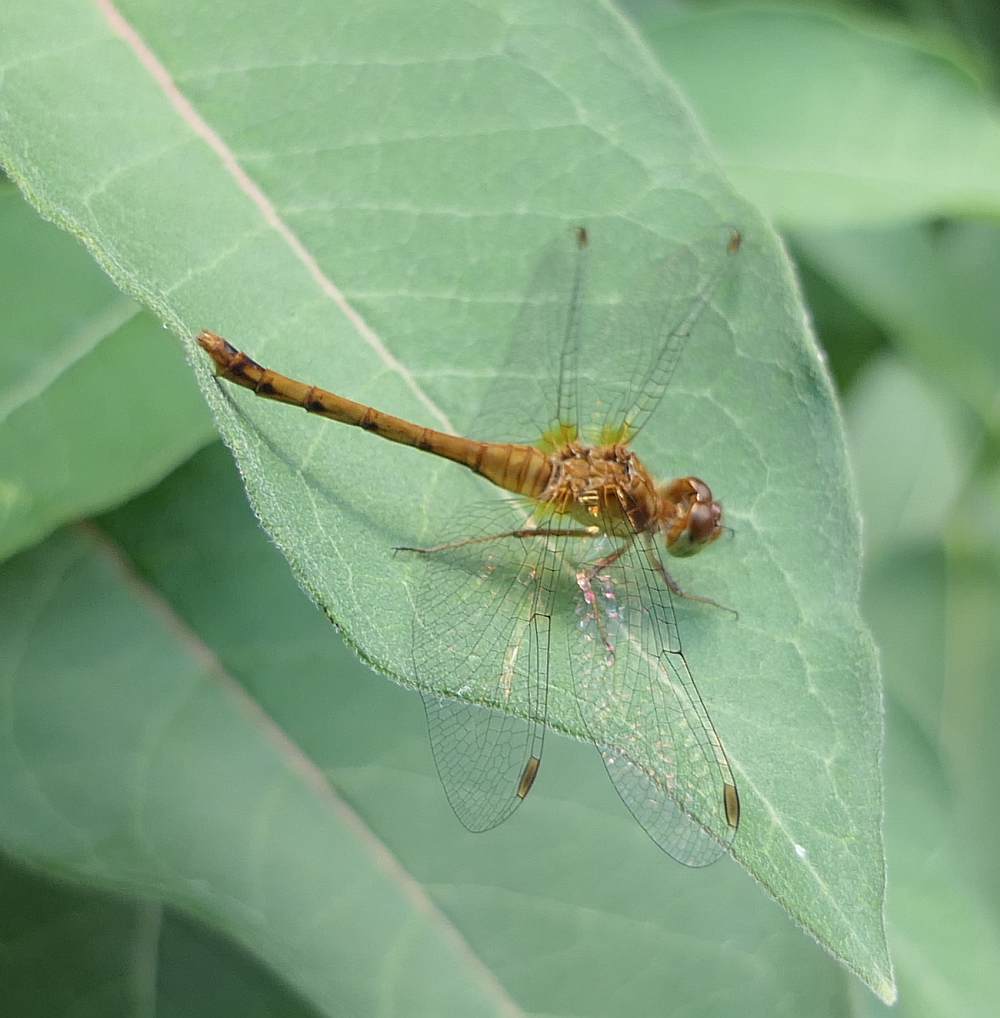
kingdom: Animalia
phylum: Arthropoda
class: Insecta
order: Odonata
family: Libellulidae
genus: Sympetrum
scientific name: Sympetrum vicinum
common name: Autumn meadowhawk
